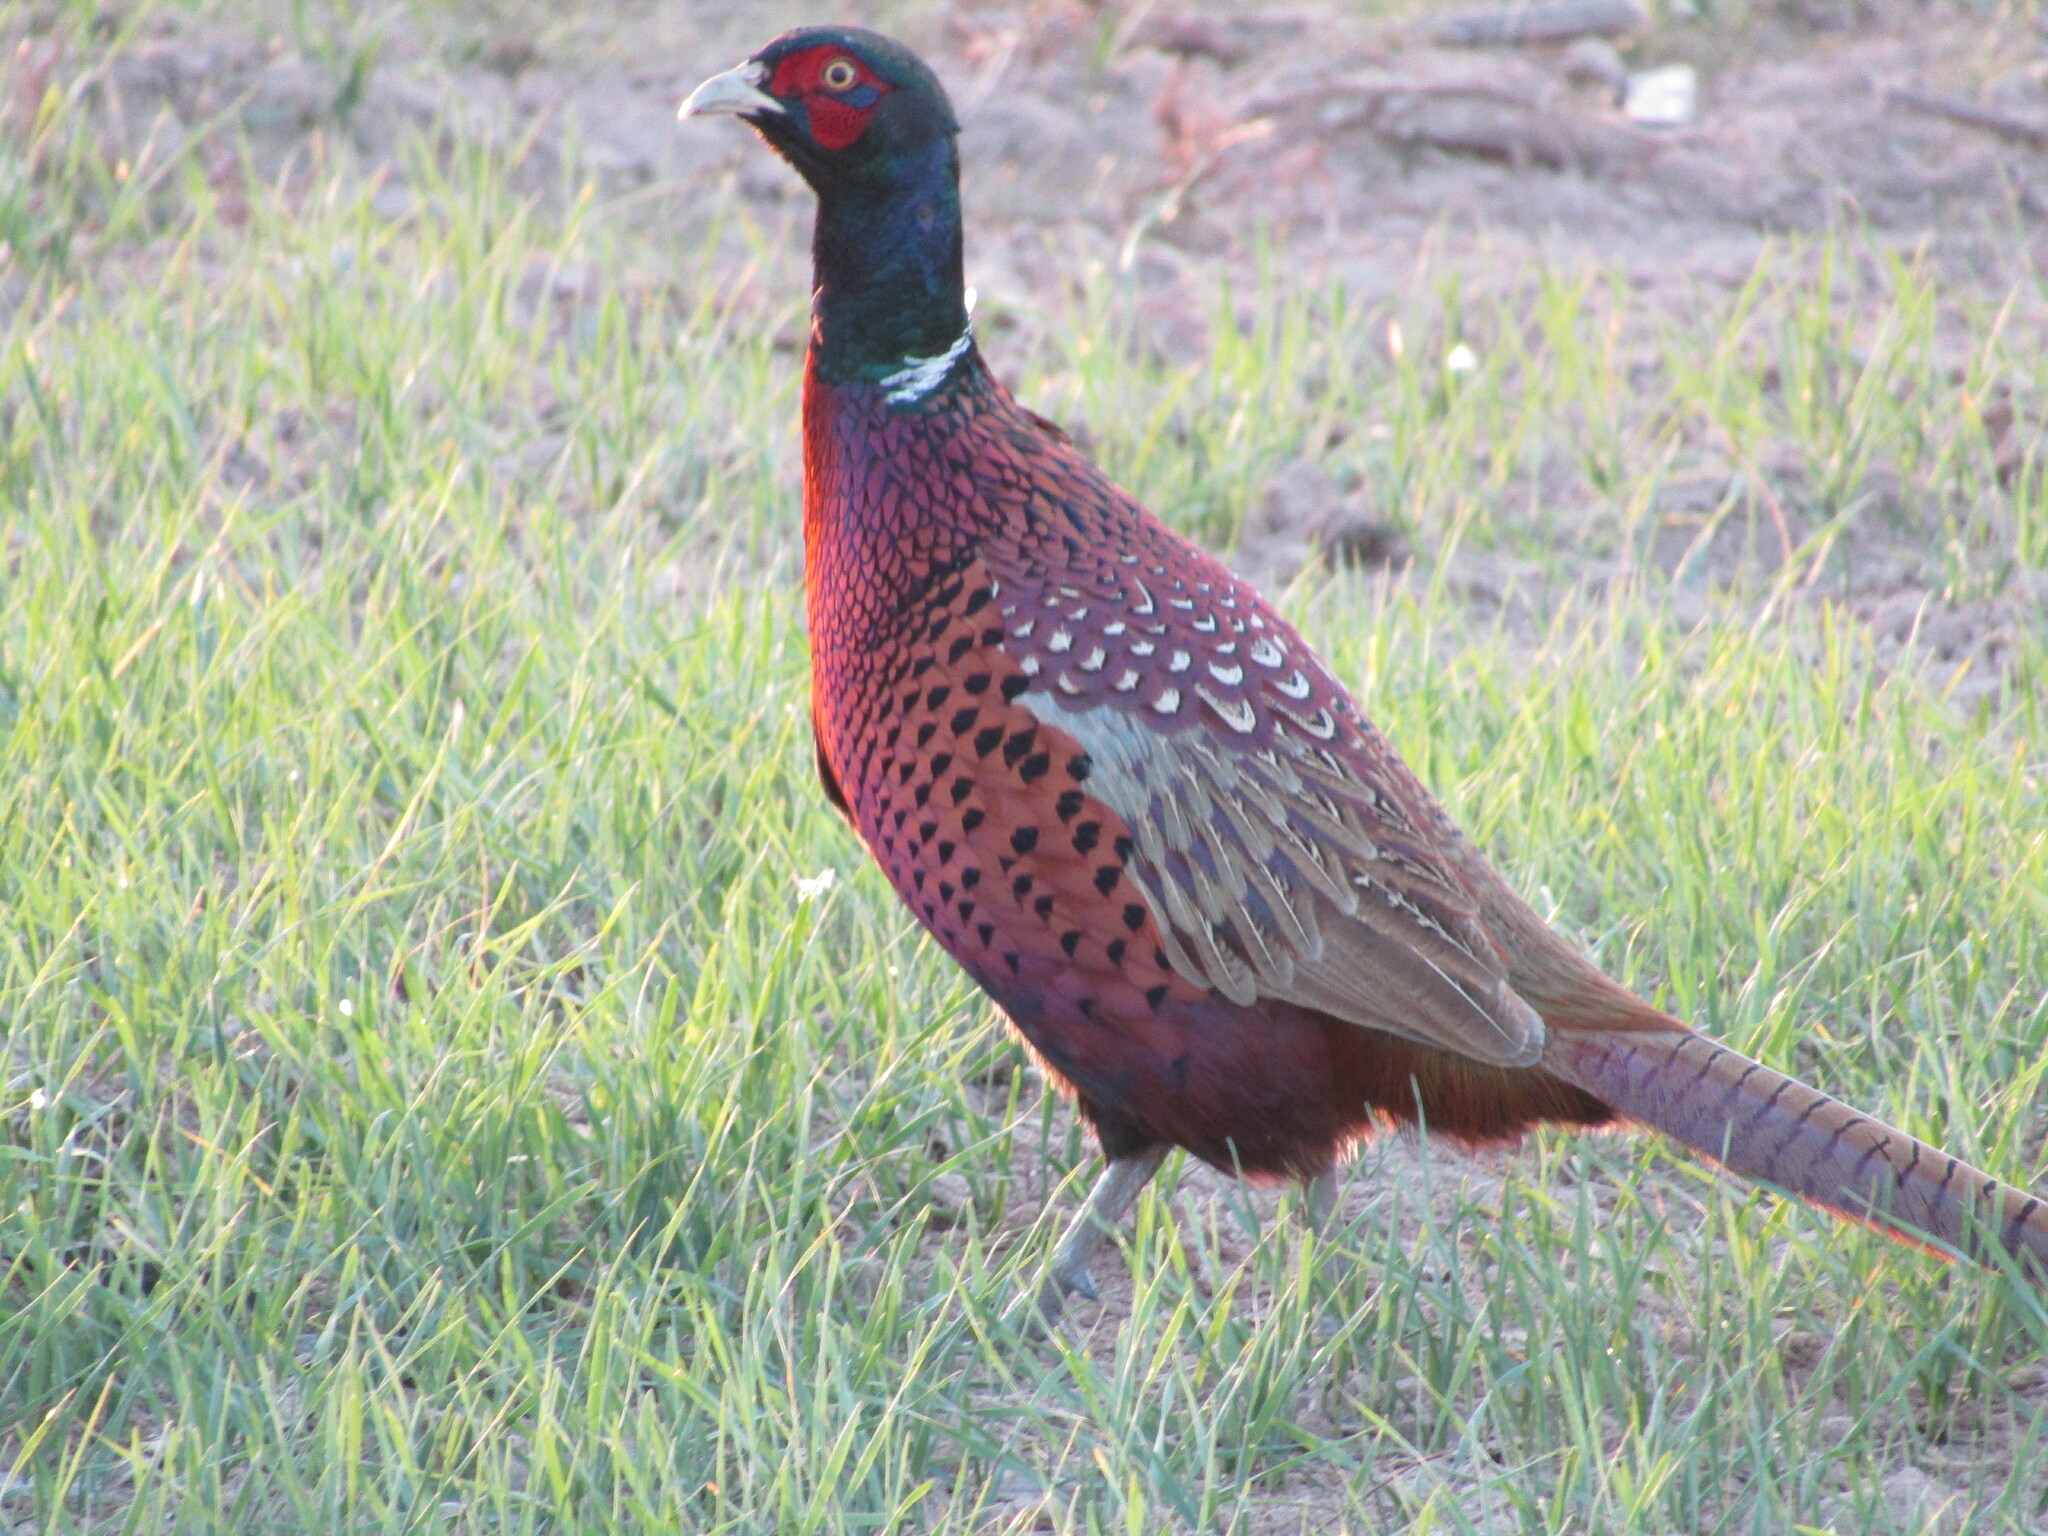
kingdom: Animalia
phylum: Chordata
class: Aves
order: Galliformes
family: Phasianidae
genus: Phasianus
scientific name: Phasianus colchicus
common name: Common pheasant
